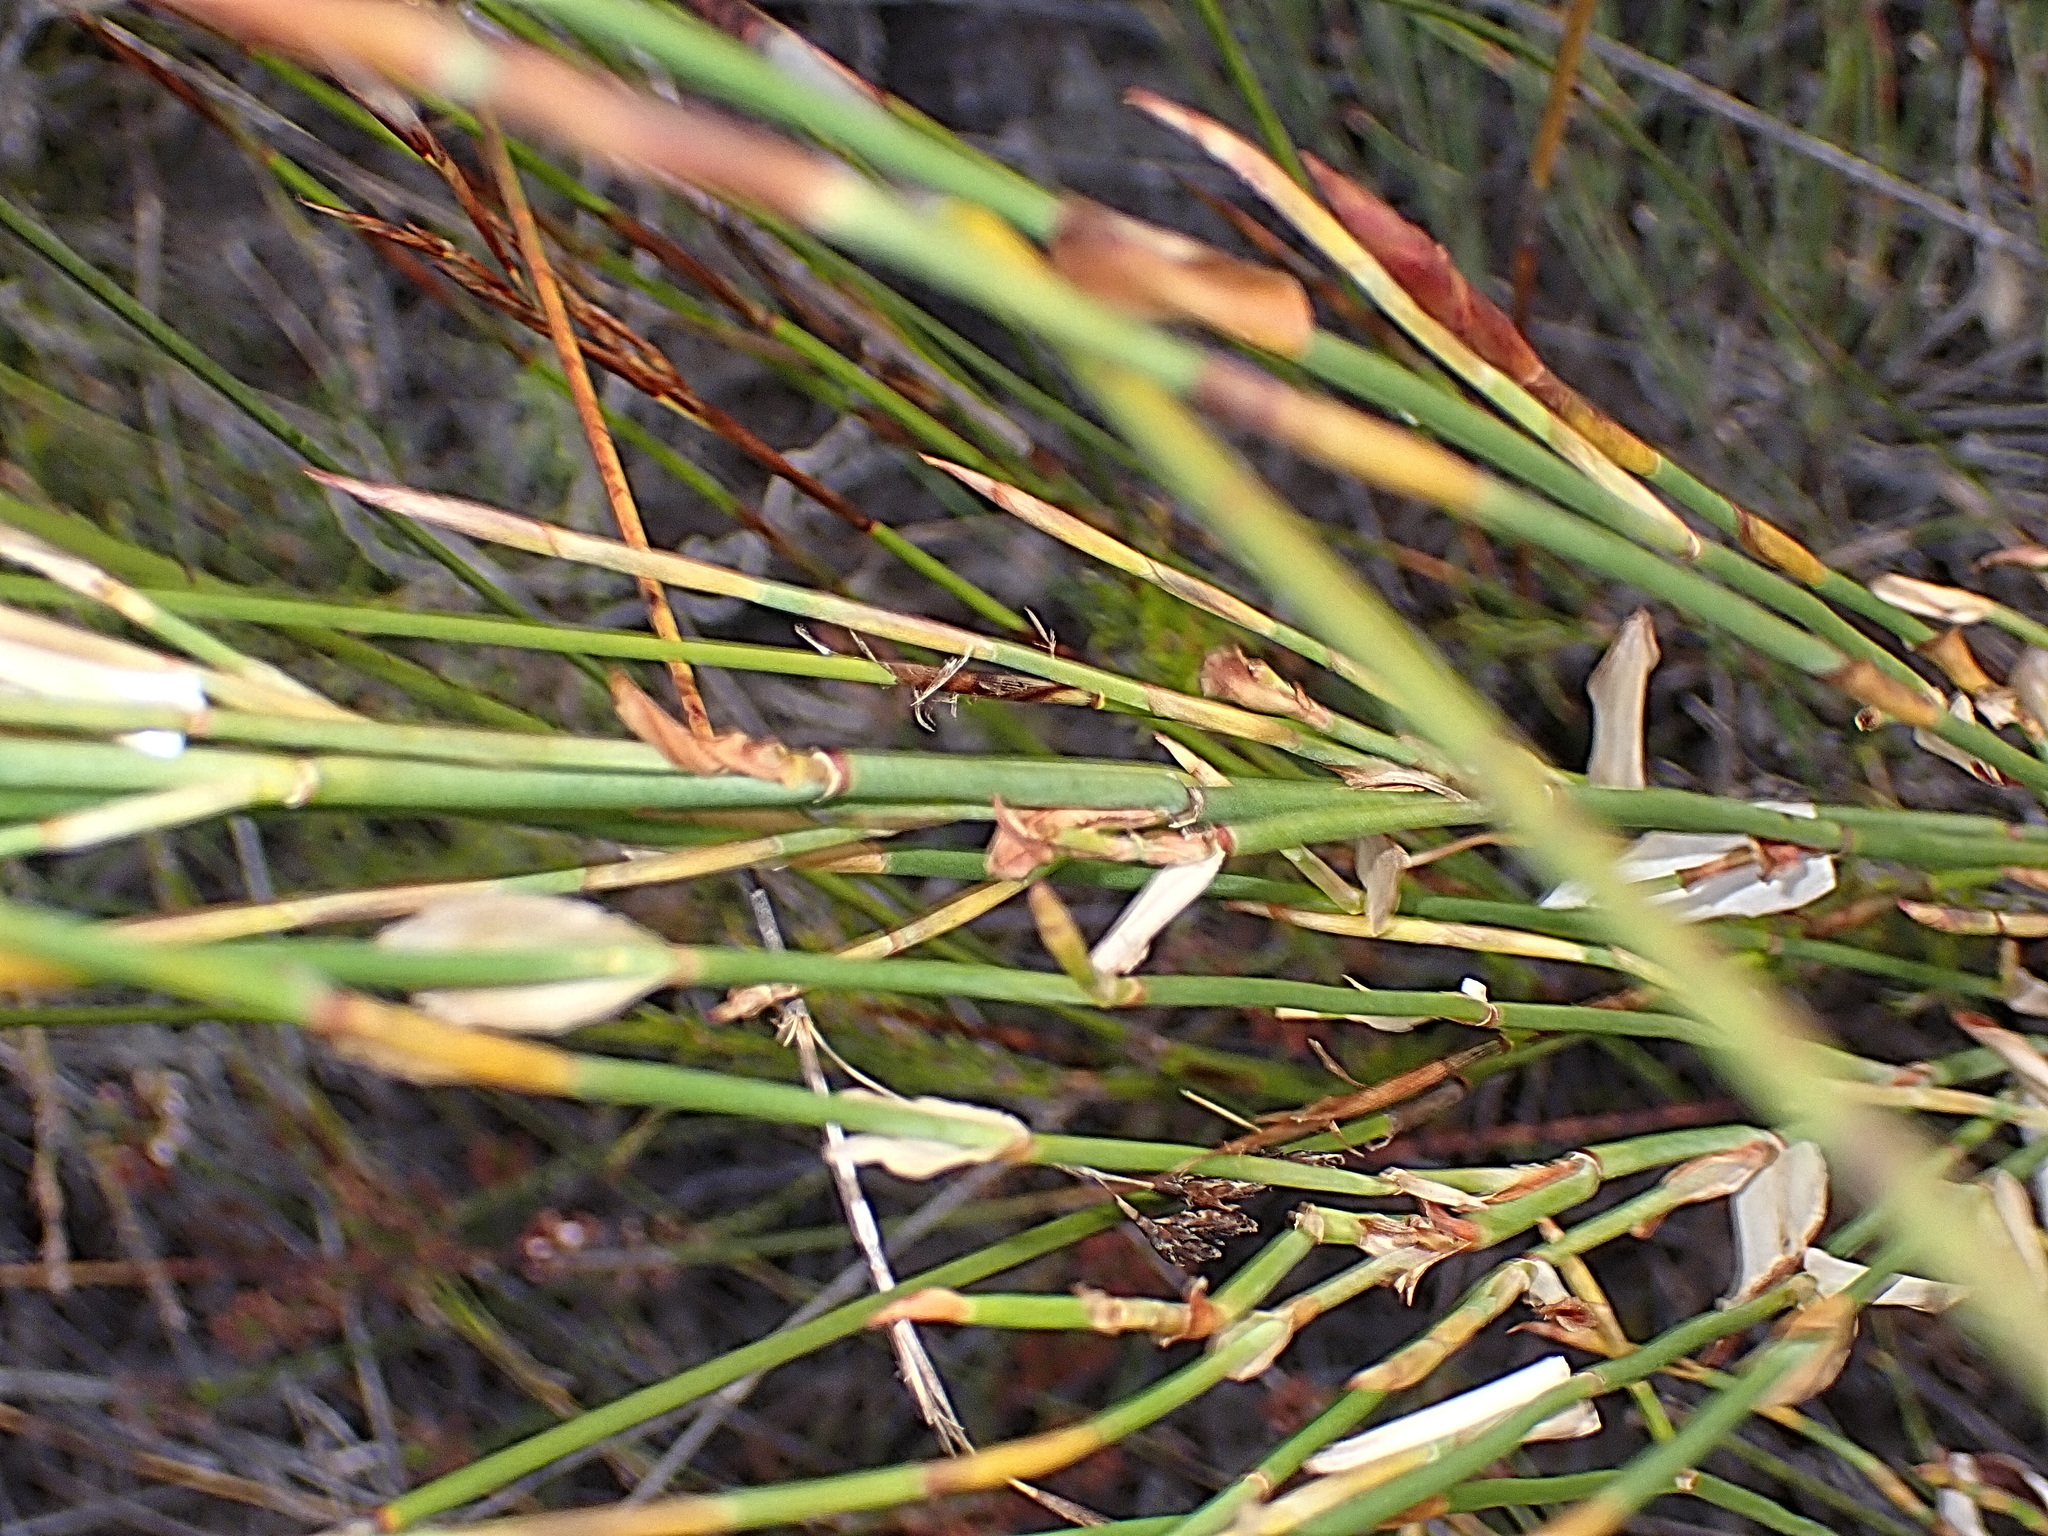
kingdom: Plantae
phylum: Tracheophyta
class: Liliopsida
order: Poales
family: Restionaceae
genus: Elegia
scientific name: Elegia muirii
